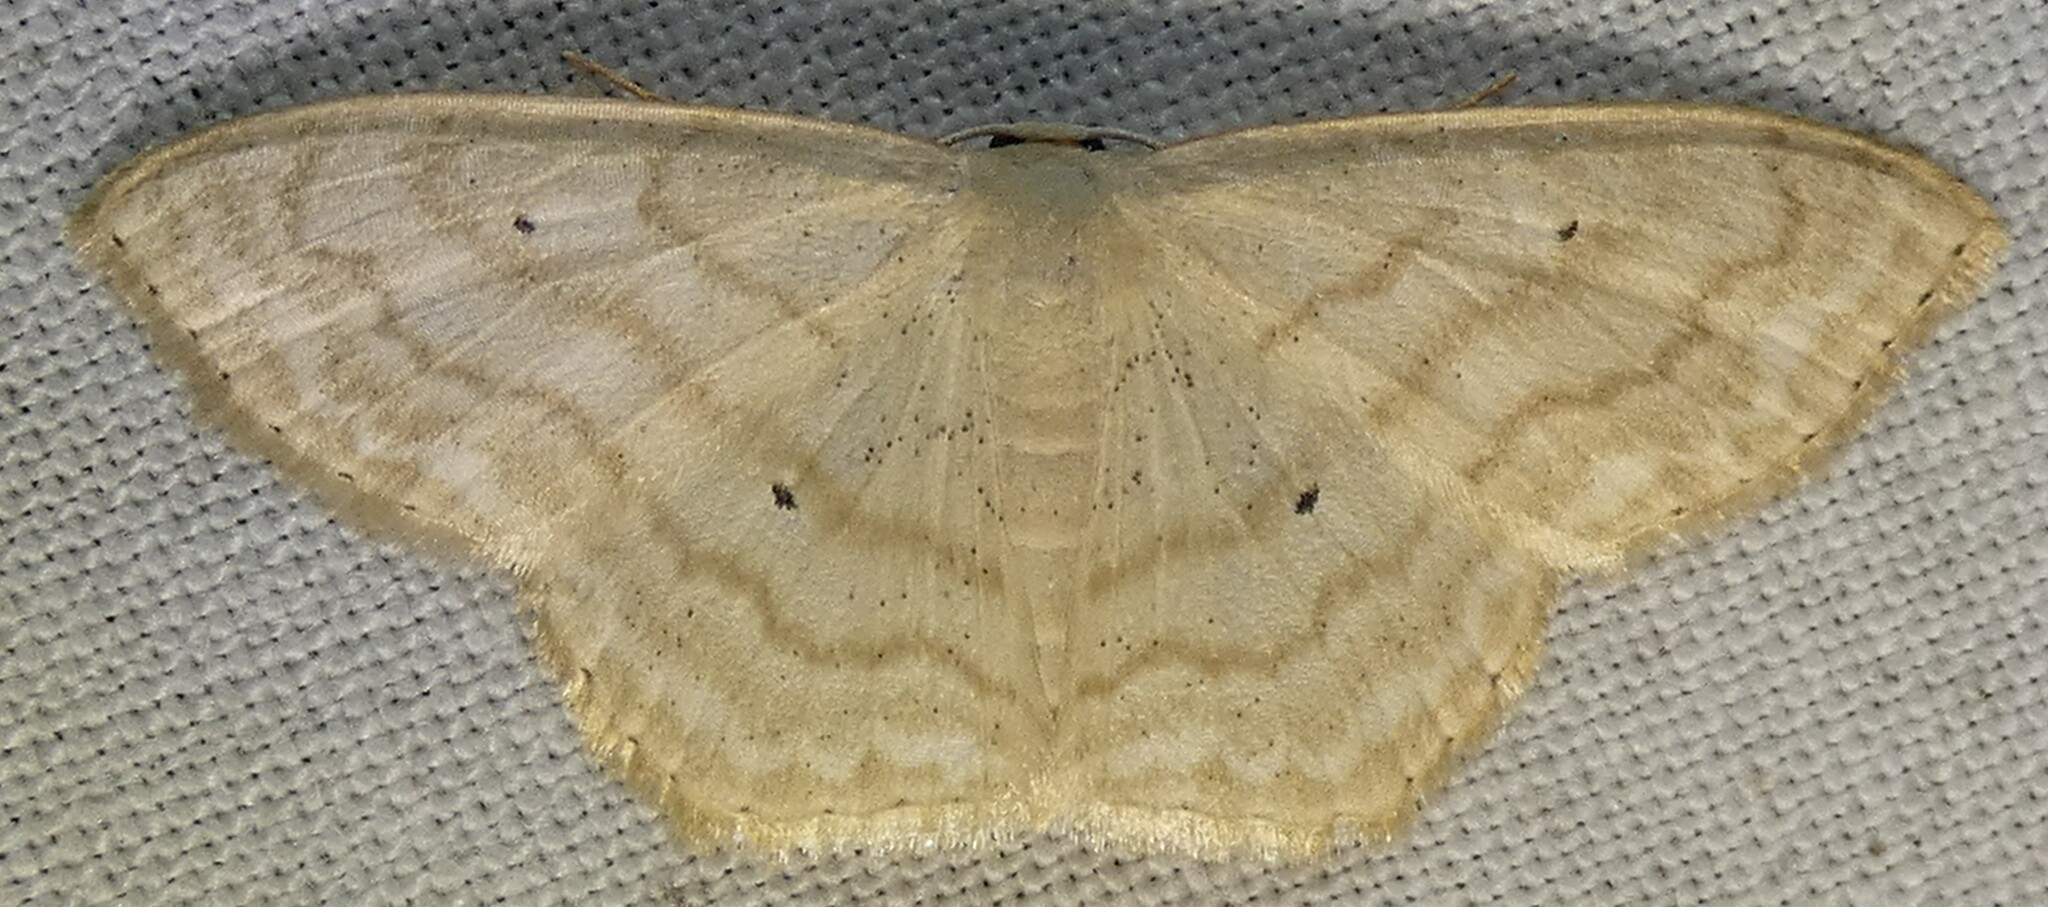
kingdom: Animalia
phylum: Arthropoda
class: Insecta
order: Lepidoptera
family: Geometridae
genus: Scopula
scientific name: Scopula limboundata
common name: Large lace border
